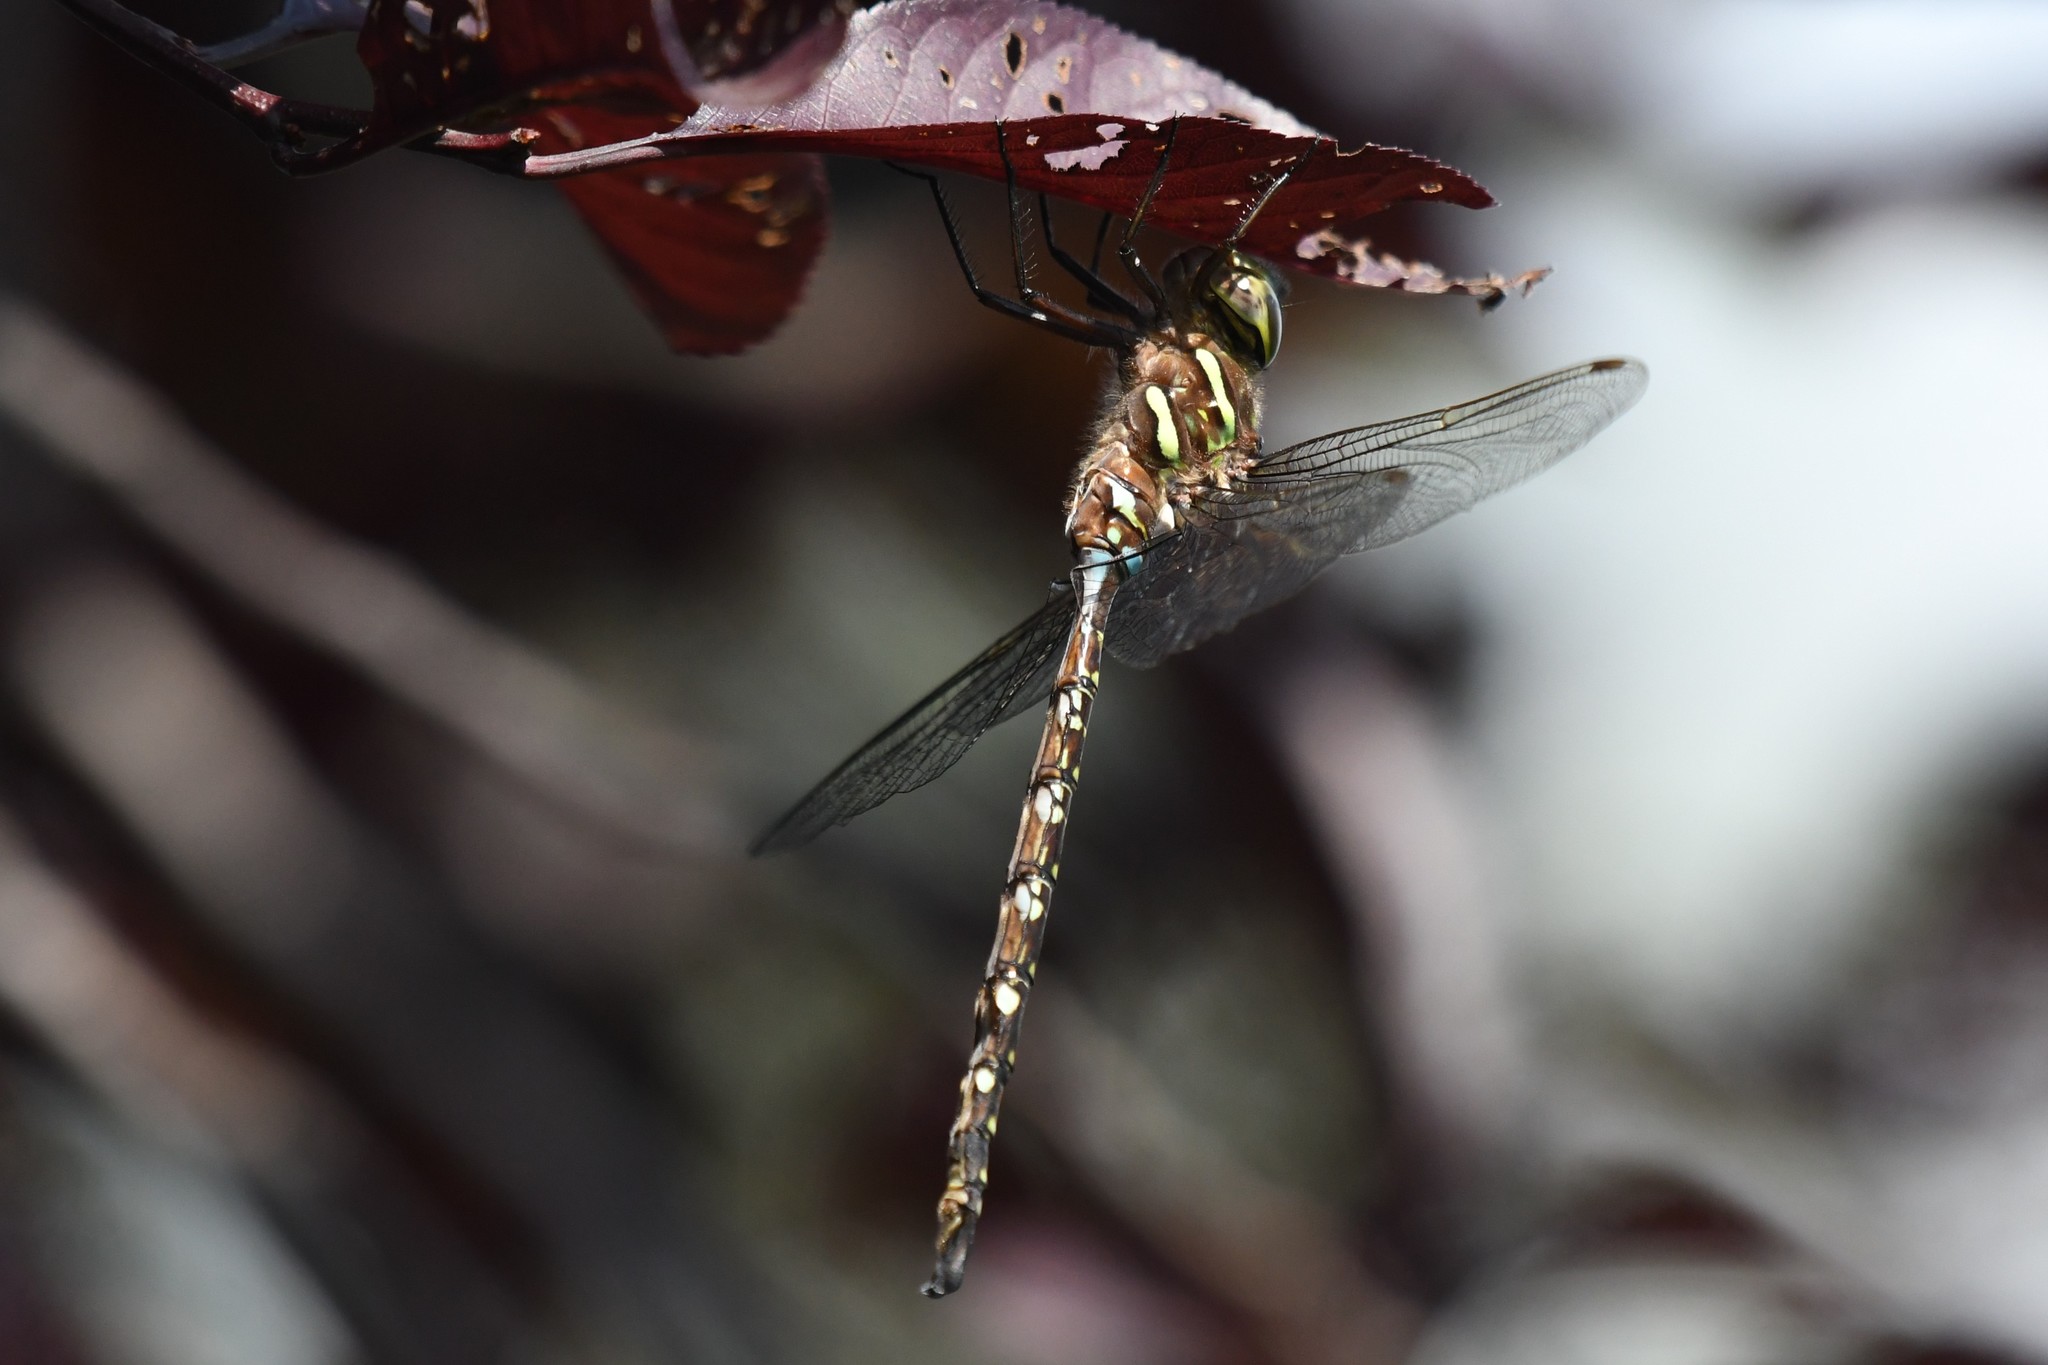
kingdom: Animalia
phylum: Arthropoda
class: Insecta
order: Odonata
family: Aeshnidae
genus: Aeshna
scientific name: Aeshna umbrosa
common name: Shadow darner
